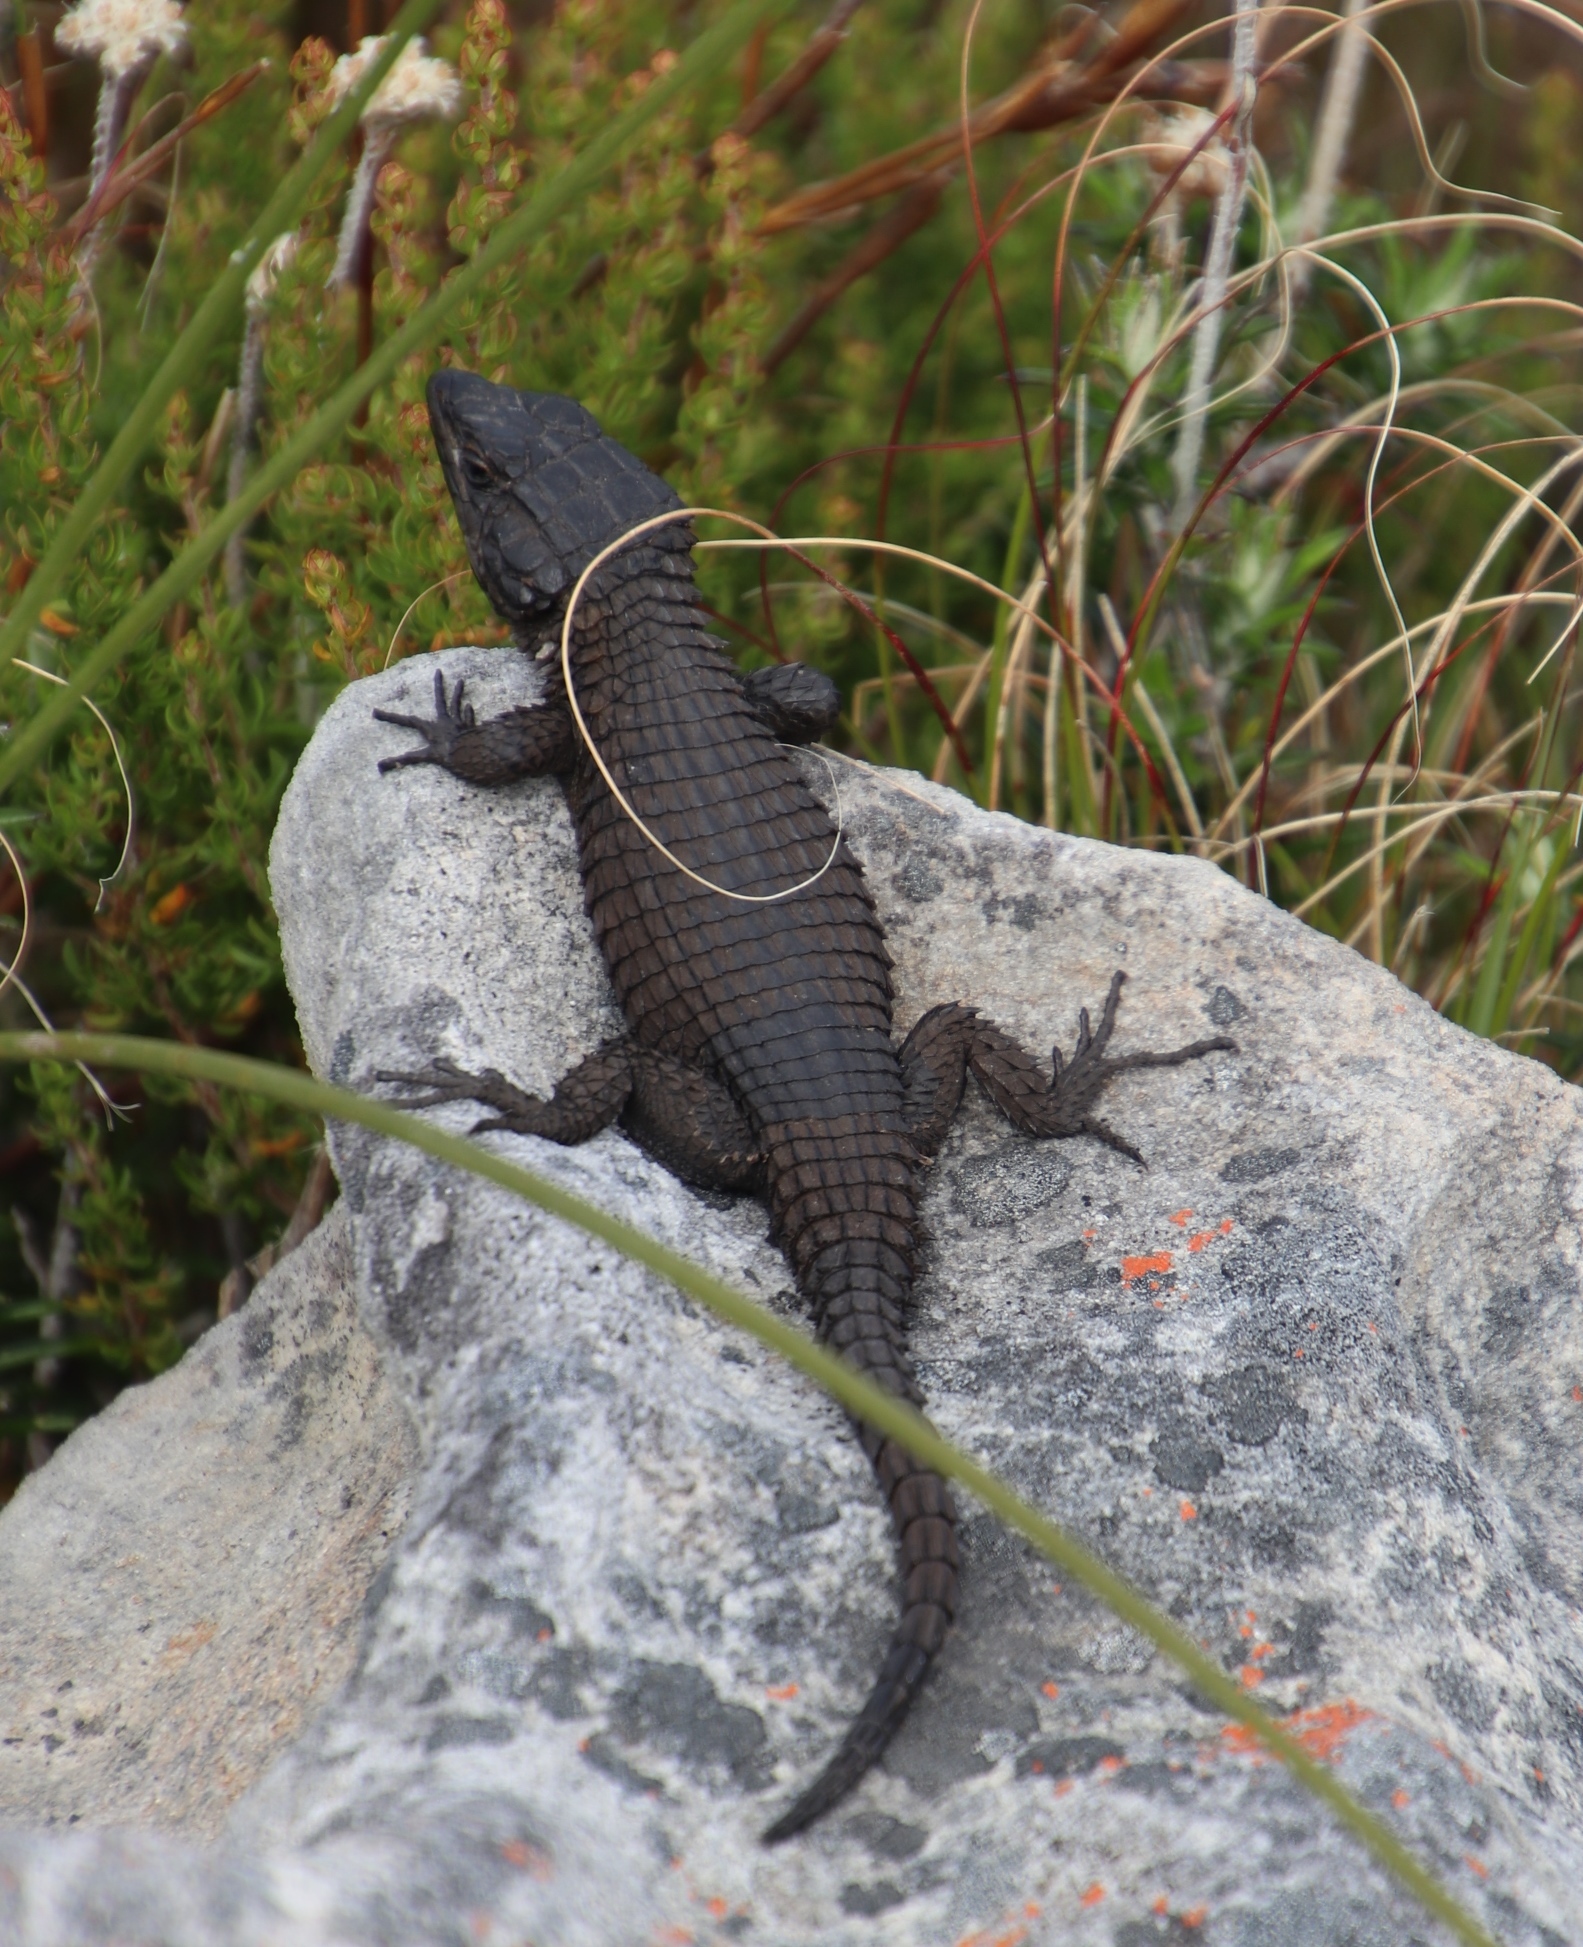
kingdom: Animalia
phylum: Chordata
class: Squamata
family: Cordylidae
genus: Cordylus
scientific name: Cordylus niger
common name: Black girdled lizard
